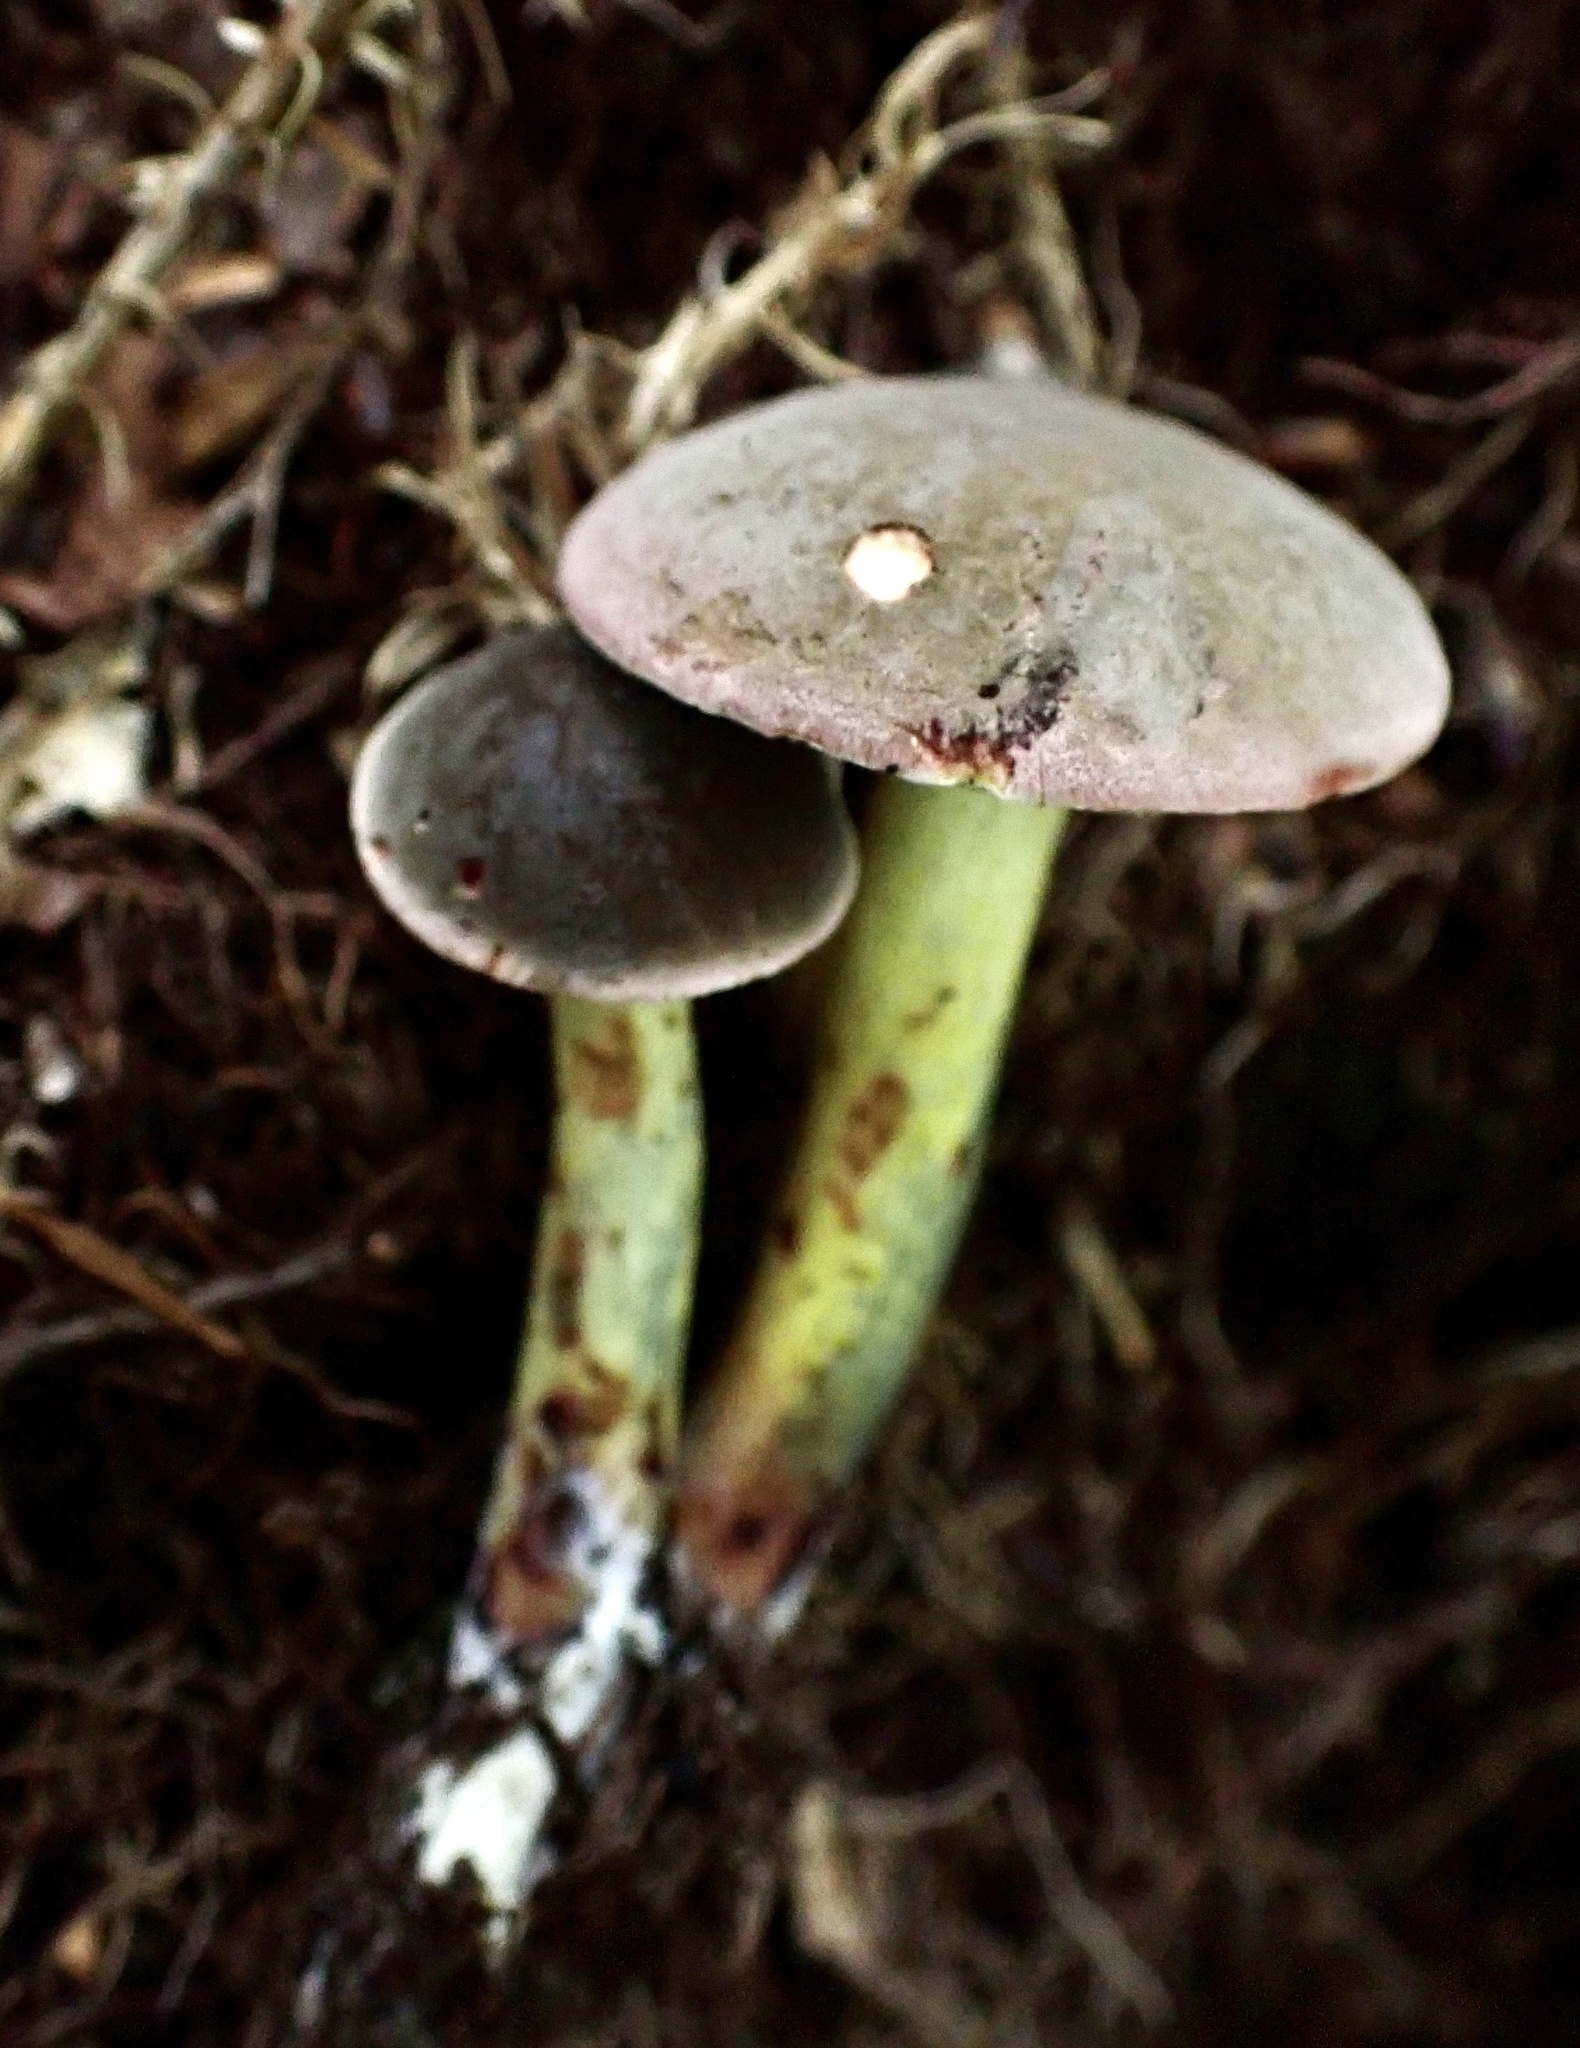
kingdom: Fungi
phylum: Basidiomycota
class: Agaricomycetes
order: Boletales
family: Boletaceae
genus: Xerocomellus
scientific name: Xerocomellus intermedius
